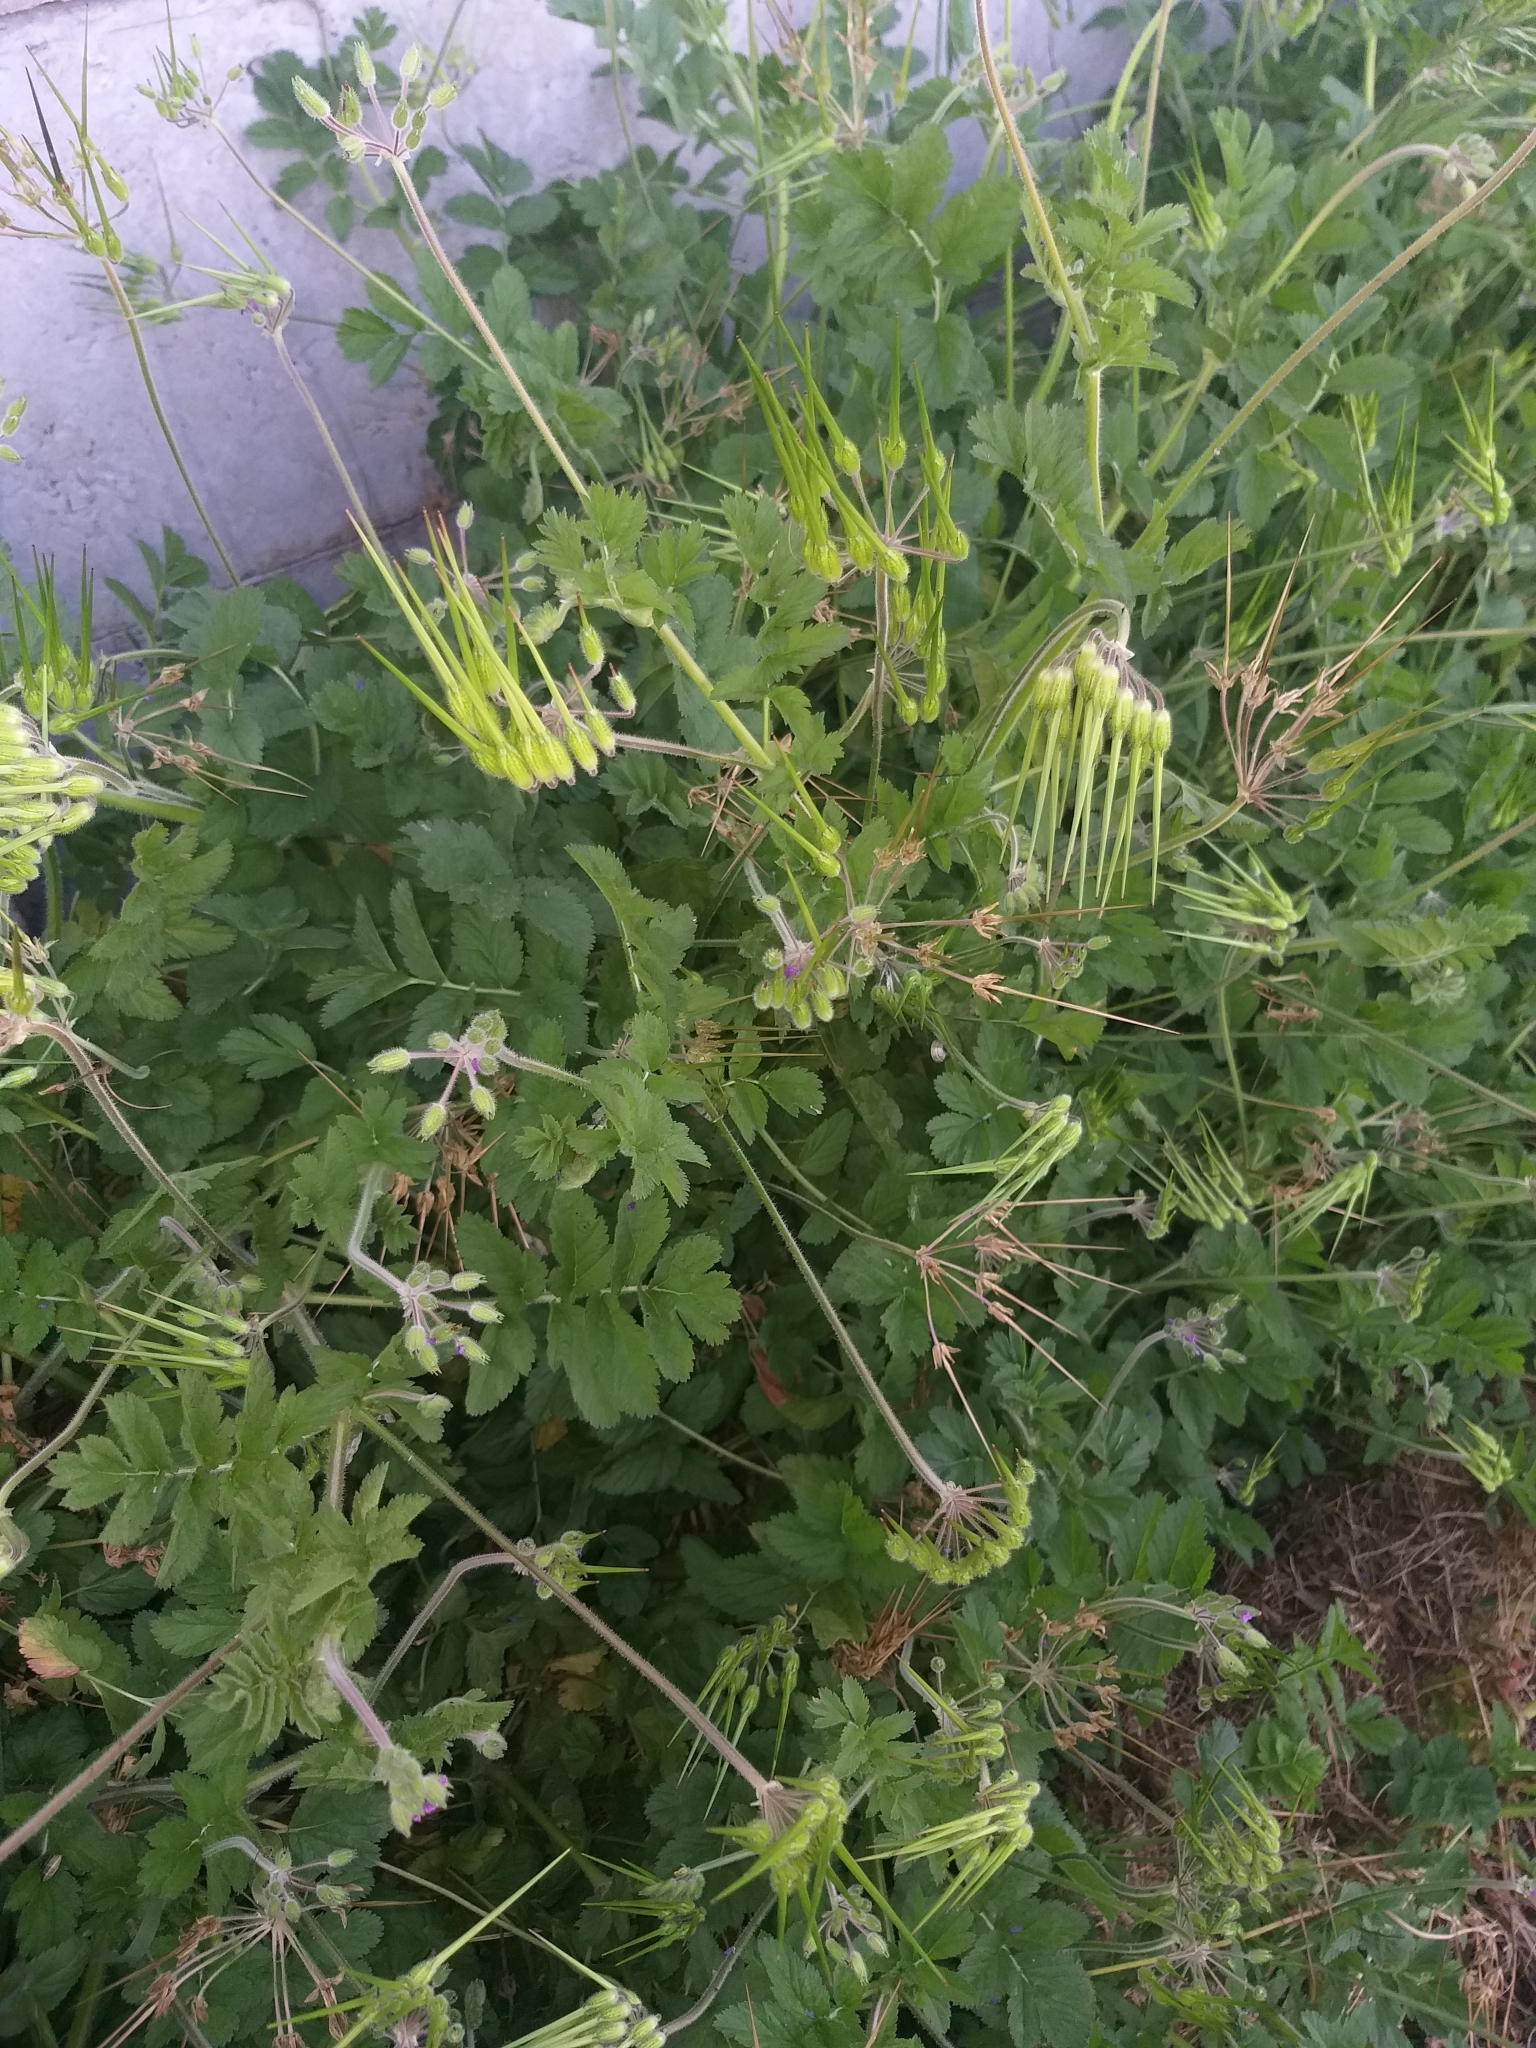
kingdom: Plantae
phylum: Tracheophyta
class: Magnoliopsida
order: Geraniales
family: Geraniaceae
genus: Erodium
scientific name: Erodium moschatum
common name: Musk stork's-bill
